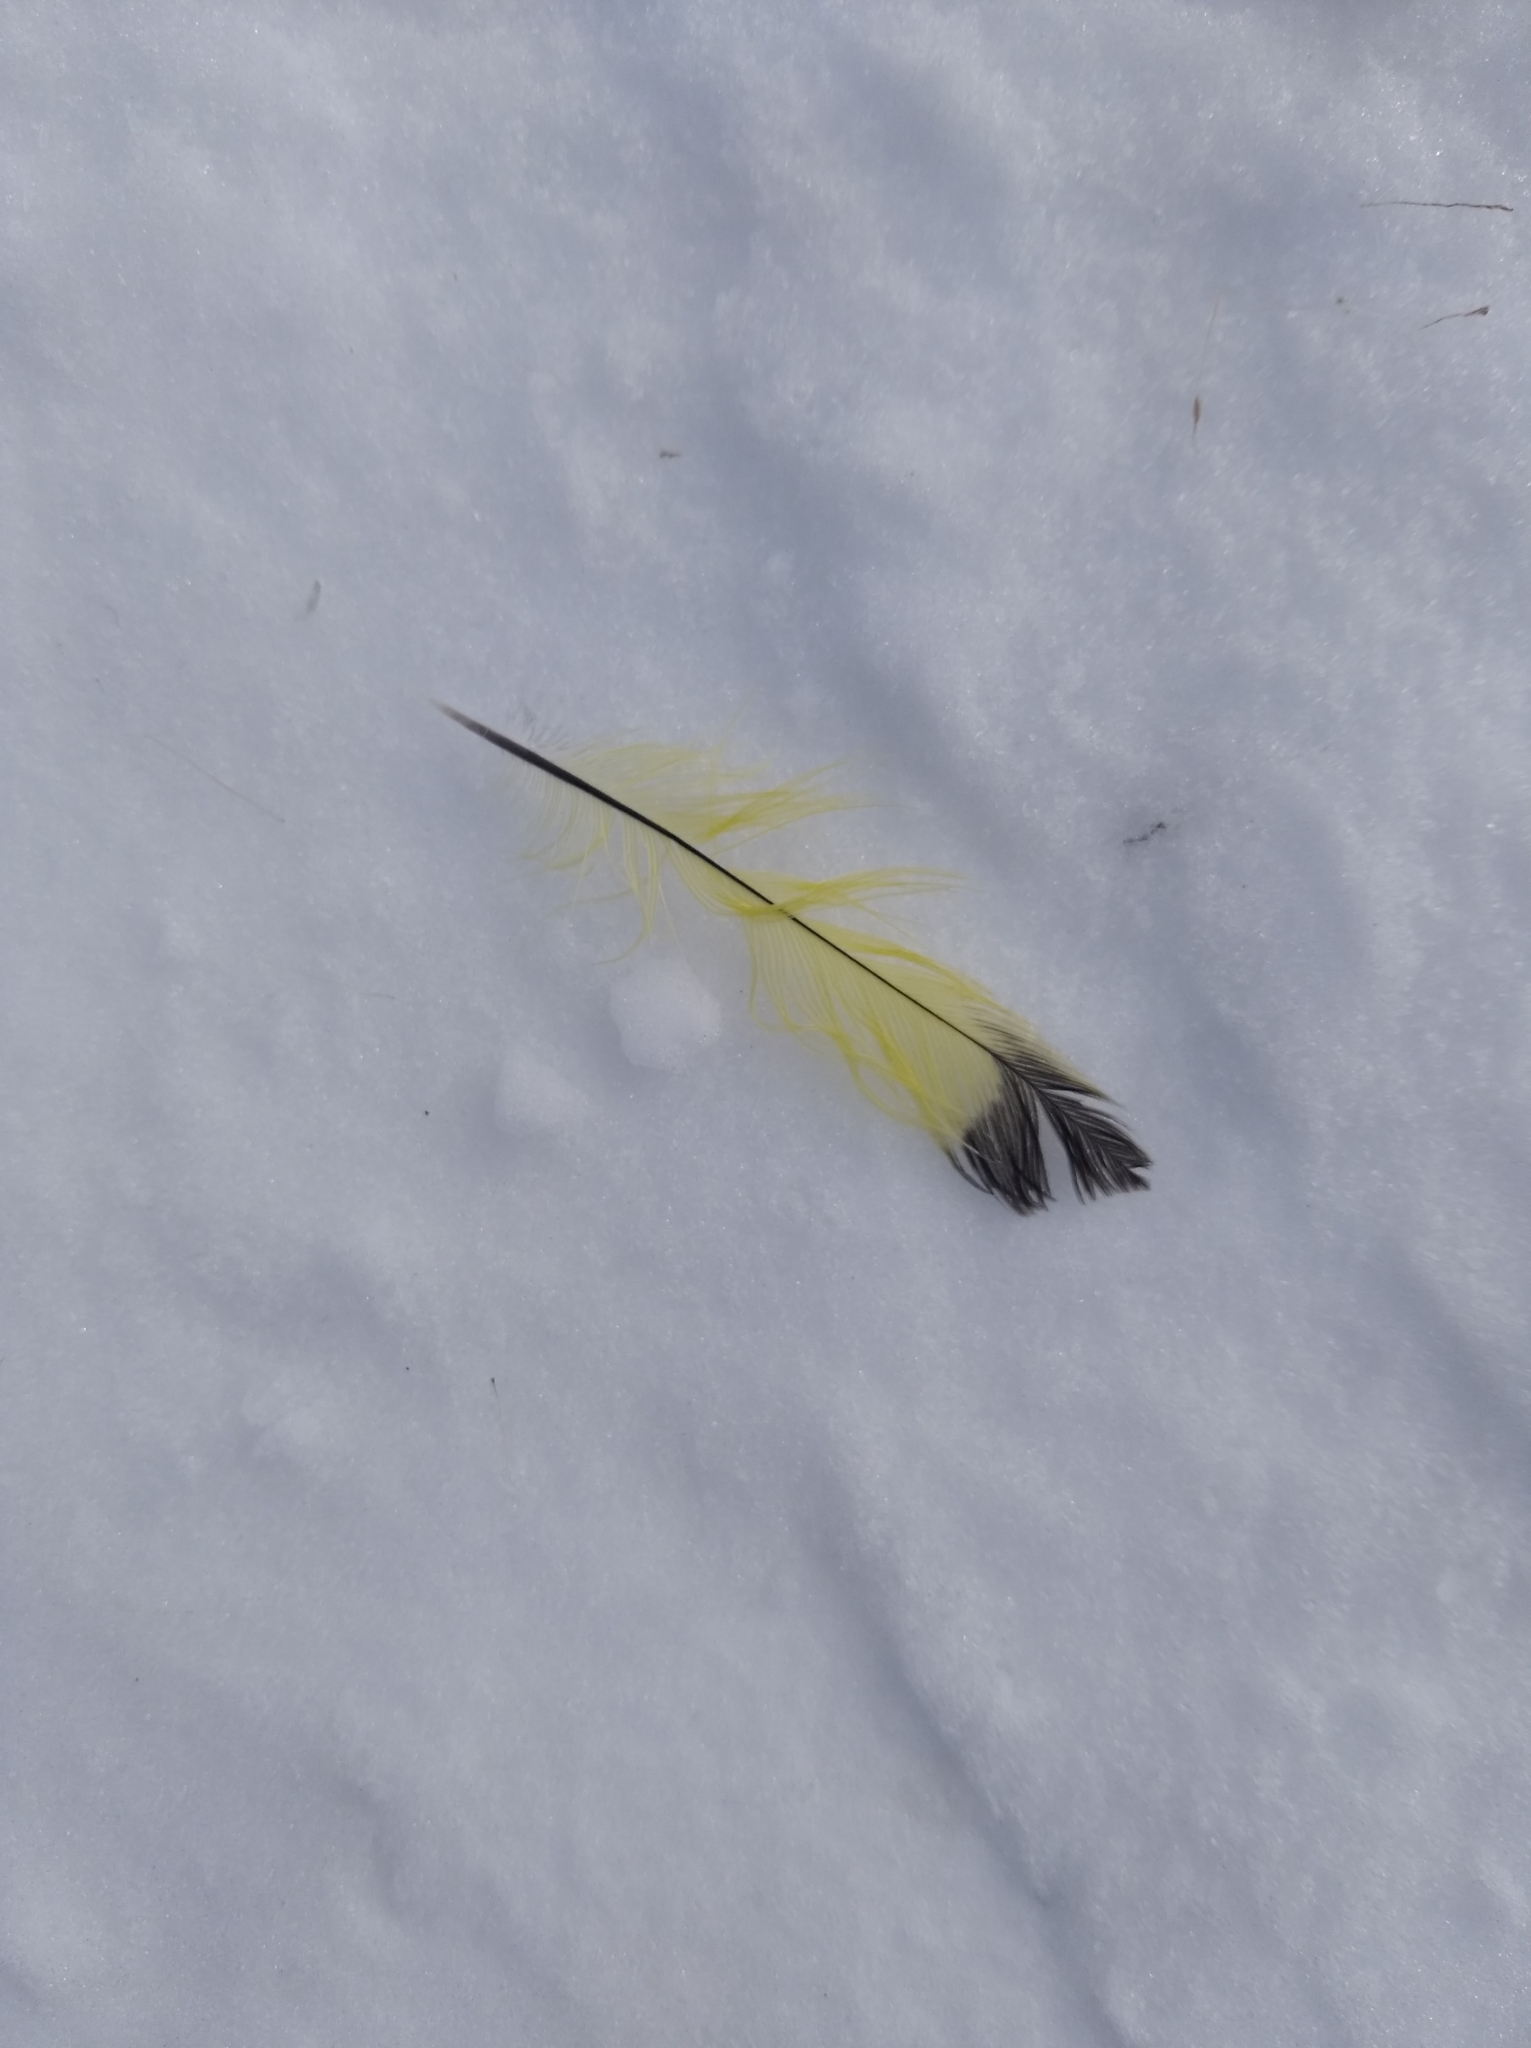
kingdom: Animalia
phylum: Chordata
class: Aves
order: Passeriformes
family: Fringillidae
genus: Spinus
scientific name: Spinus spinus
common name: Eurasian siskin
